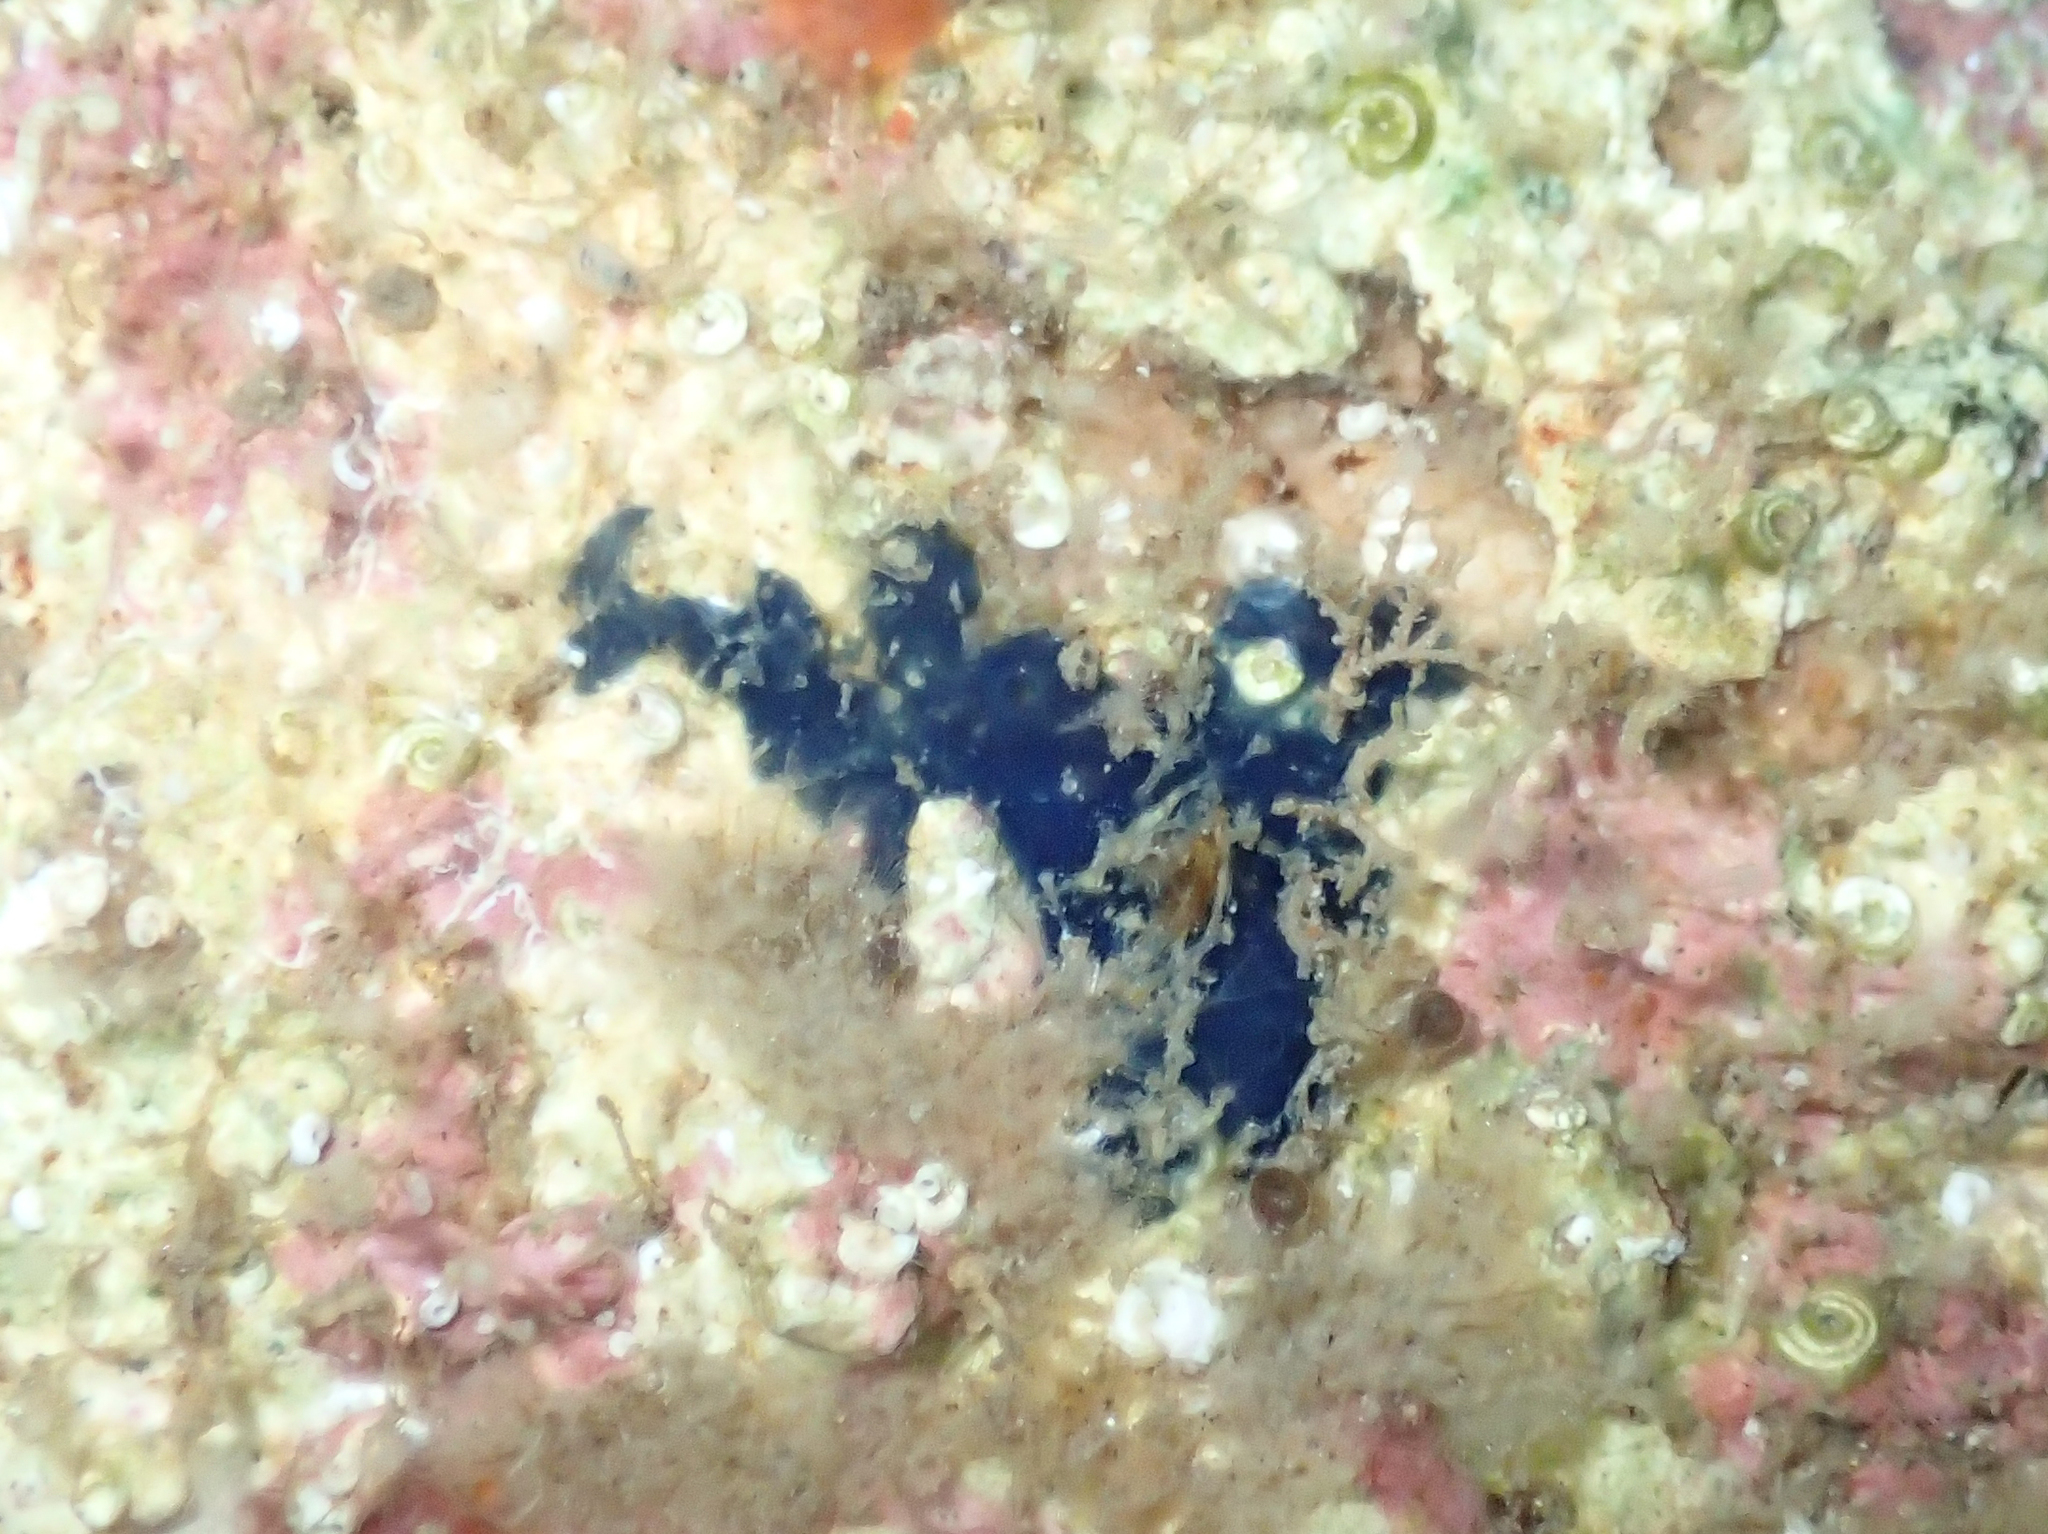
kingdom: Animalia
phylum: Porifera
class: Demospongiae
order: Suberitida
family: Suberitidae
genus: Terpios
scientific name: Terpios gelatinosus
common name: Blue encrusting sponge
